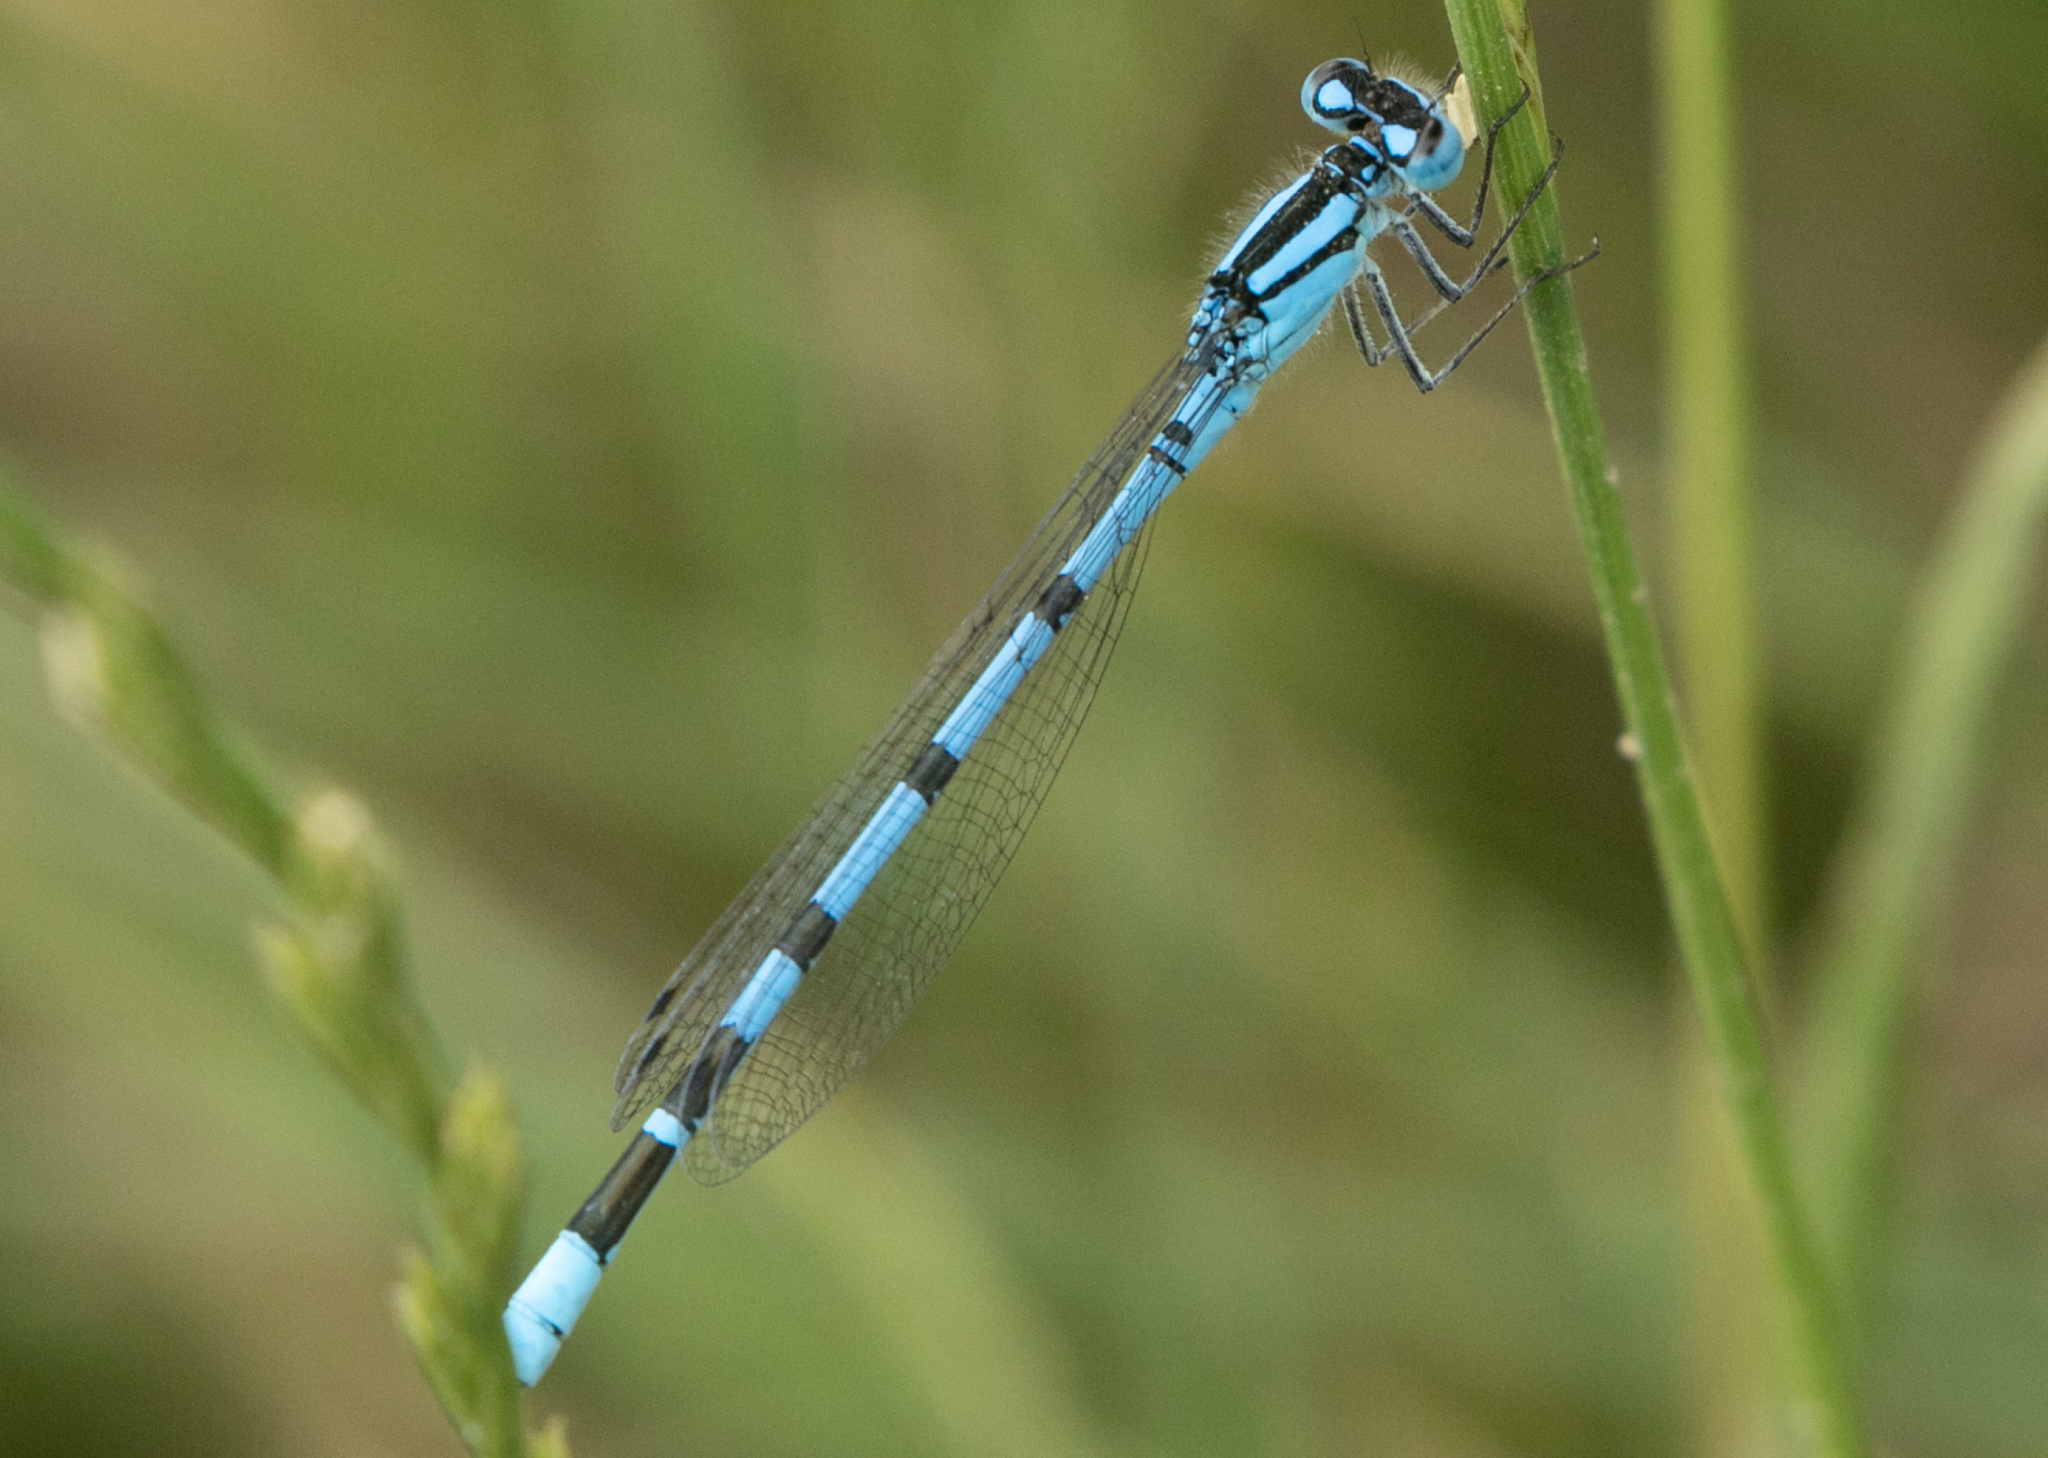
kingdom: Animalia
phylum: Arthropoda
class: Insecta
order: Odonata
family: Coenagrionidae
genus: Enallagma
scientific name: Enallagma cyathigerum
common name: Common blue damselfly
